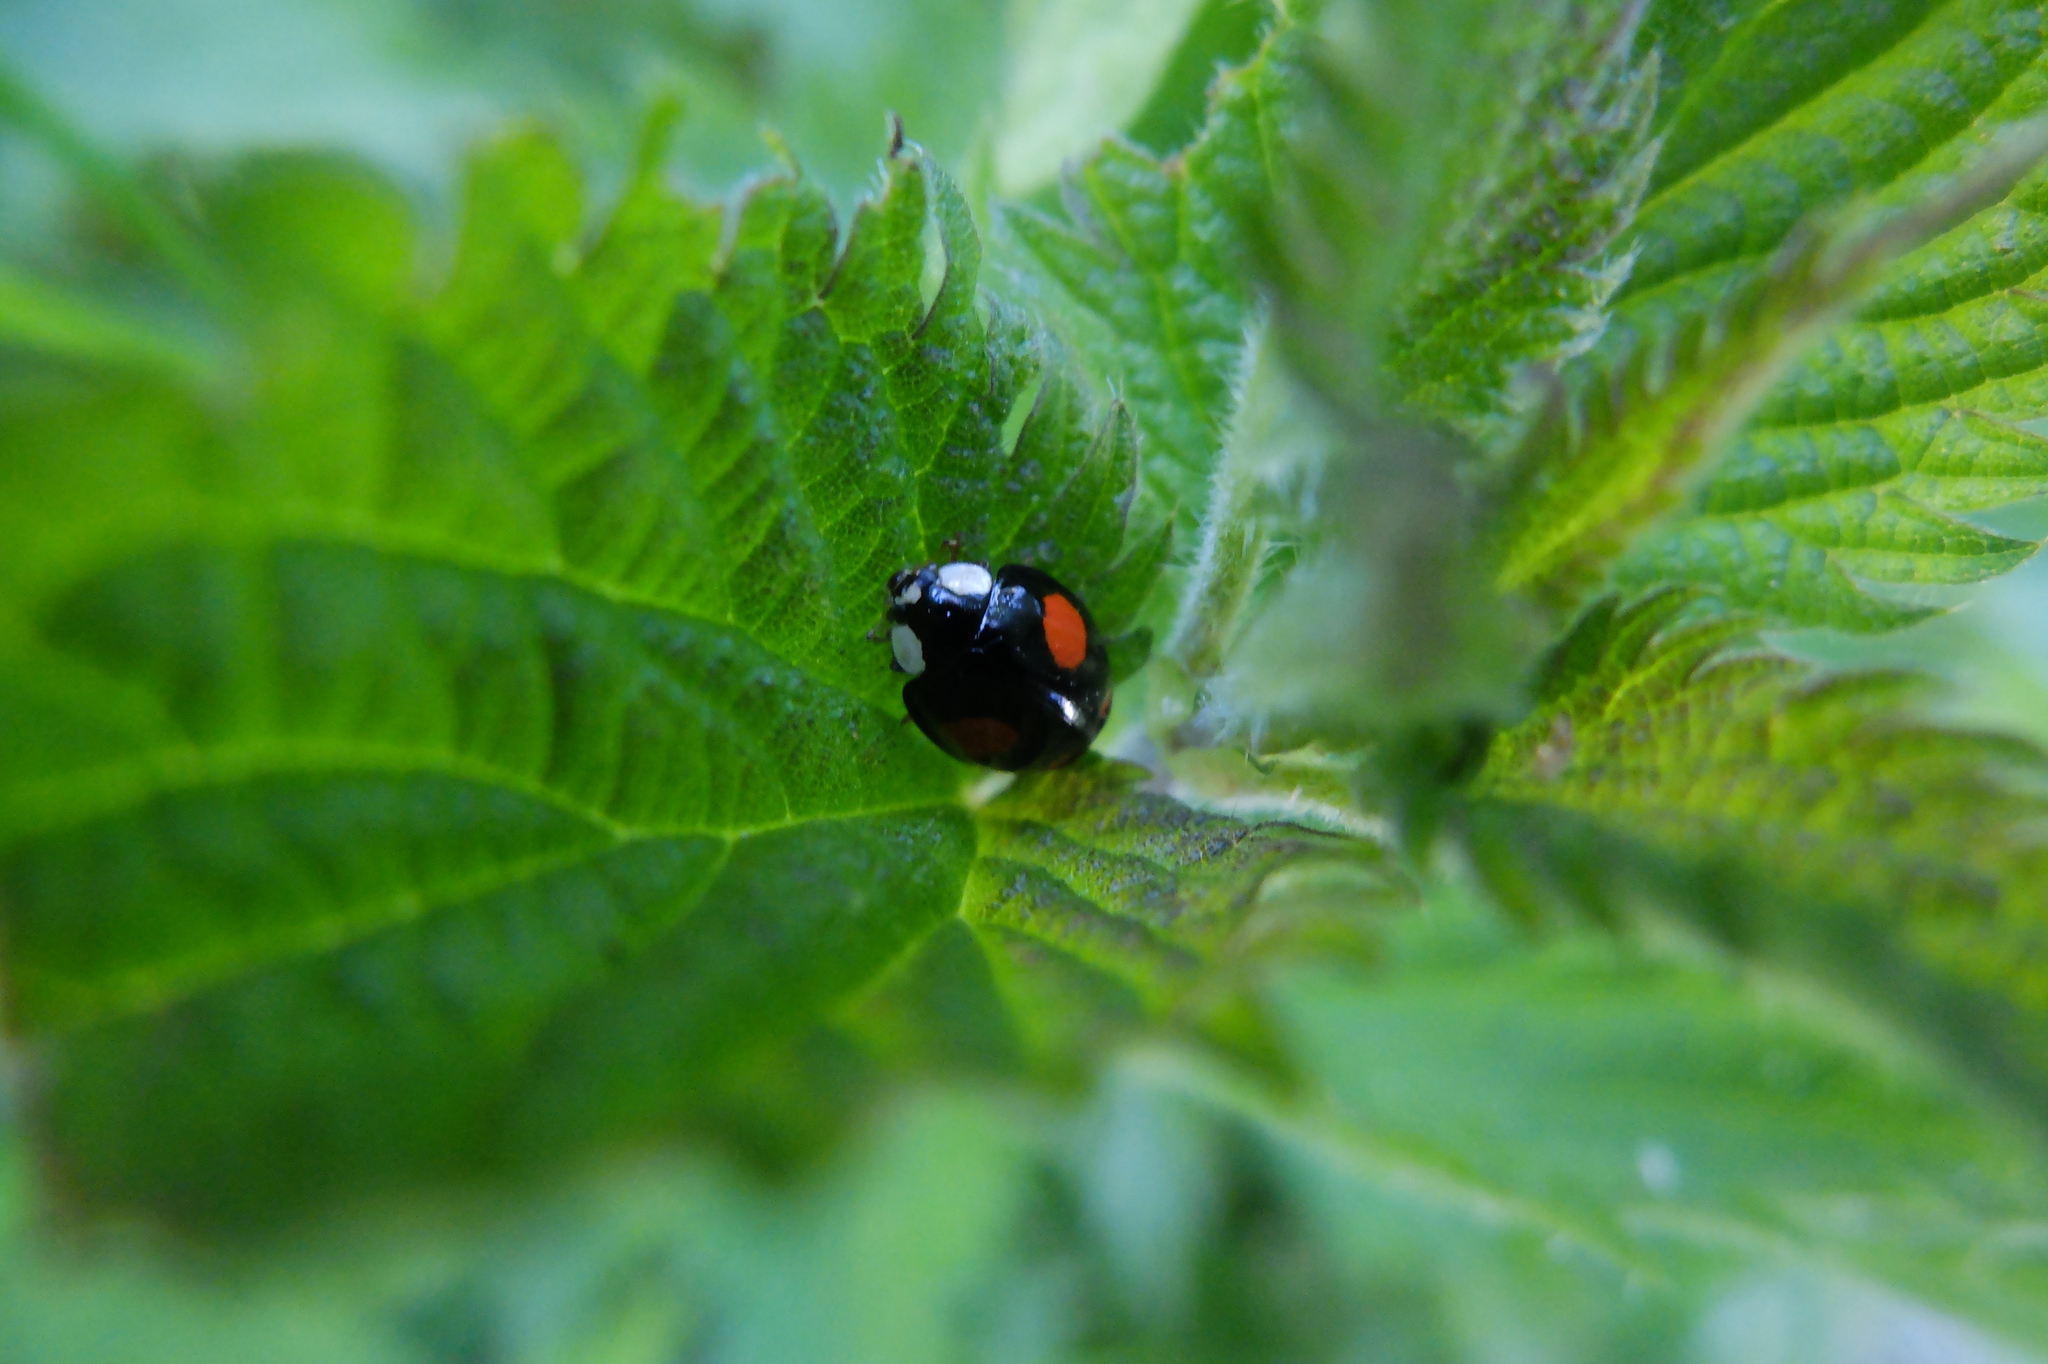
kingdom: Animalia
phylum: Arthropoda
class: Insecta
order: Coleoptera
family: Coccinellidae
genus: Harmonia
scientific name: Harmonia axyridis
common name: Harlequin ladybird
